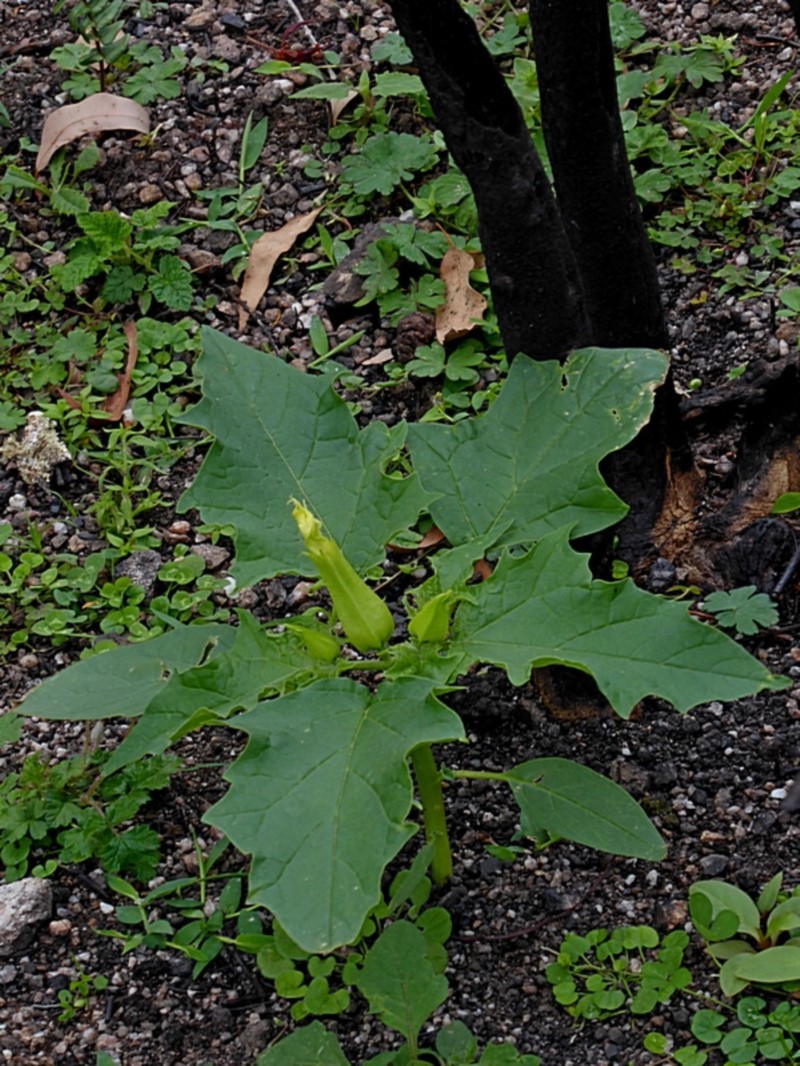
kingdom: Plantae
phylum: Tracheophyta
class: Magnoliopsida
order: Solanales
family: Solanaceae
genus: Datura
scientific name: Datura stramonium
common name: Thorn-apple
